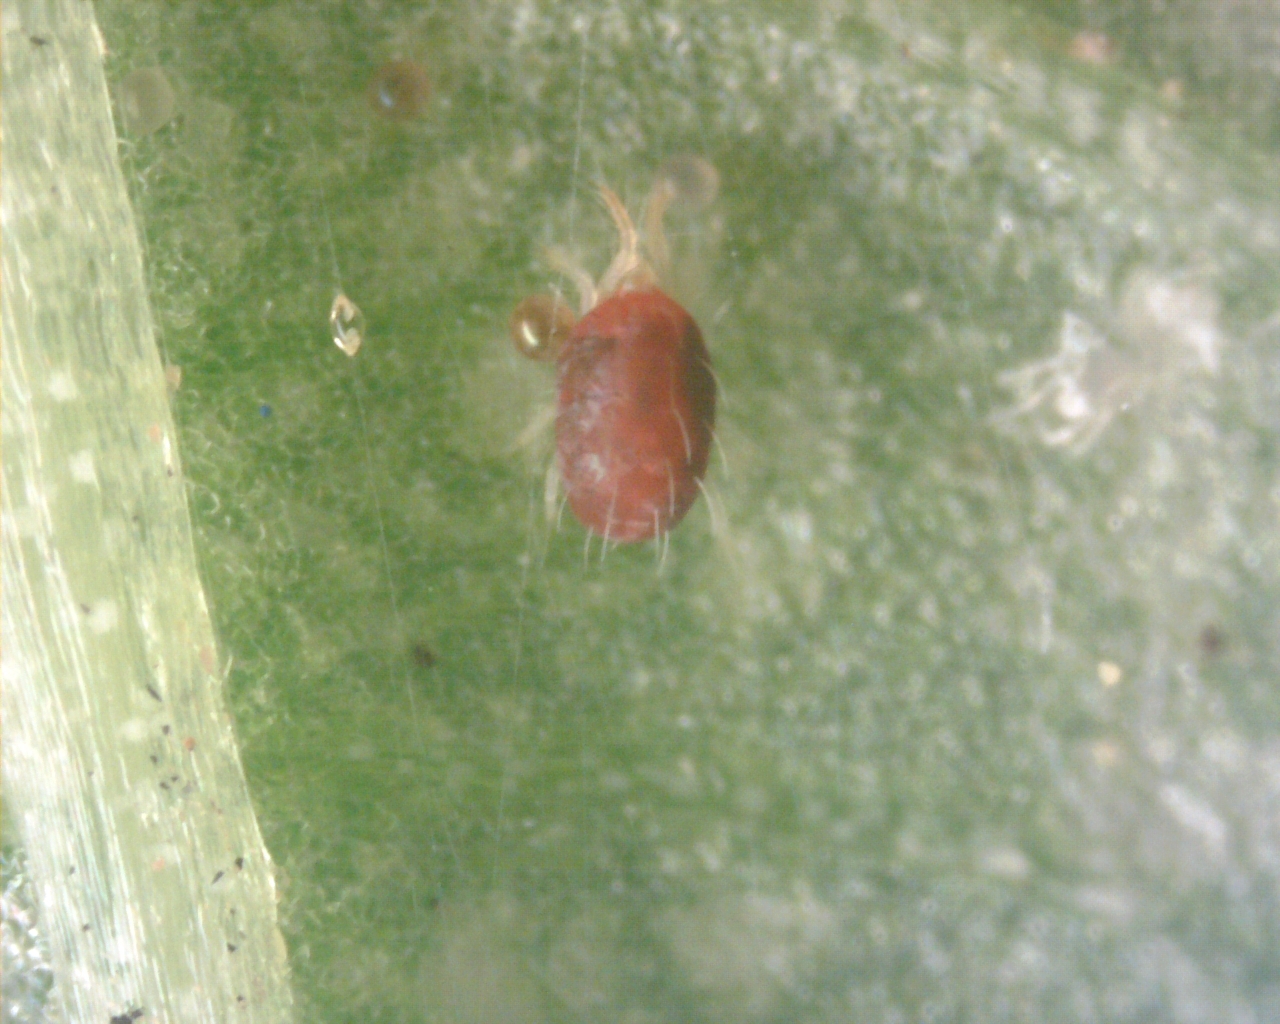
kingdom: Animalia
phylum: Arthropoda
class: Arachnida
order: Trombidiformes
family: Tetranychidae
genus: Tetranychus
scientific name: Tetranychus urticae
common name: Carmine spider mite
